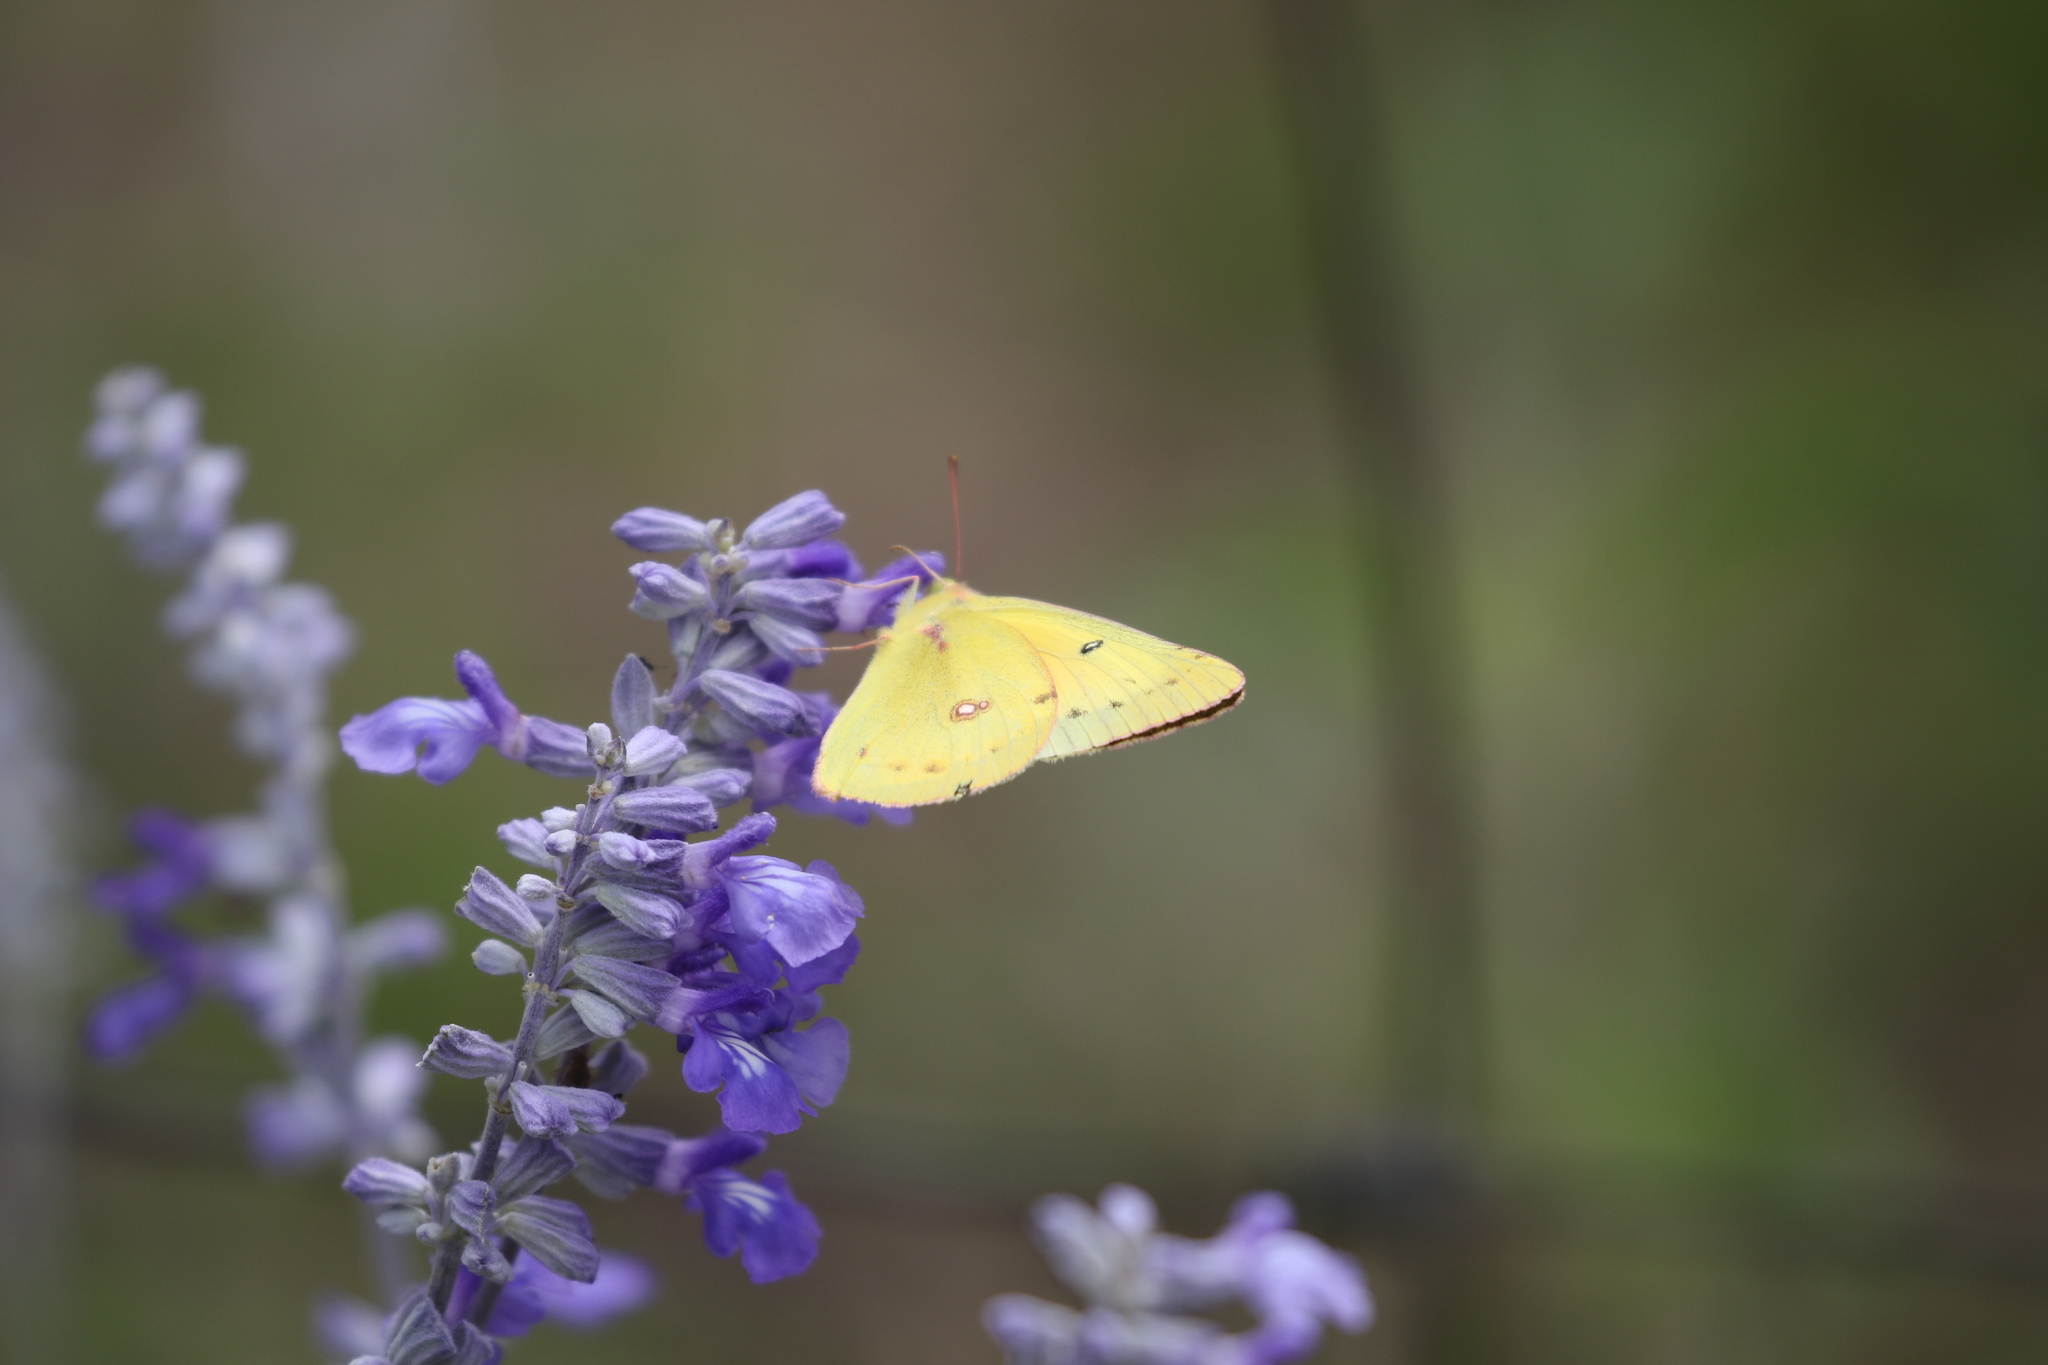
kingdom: Animalia
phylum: Arthropoda
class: Insecta
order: Lepidoptera
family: Pieridae
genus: Colias
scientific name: Colias eurytheme
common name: Alfalfa butterfly
